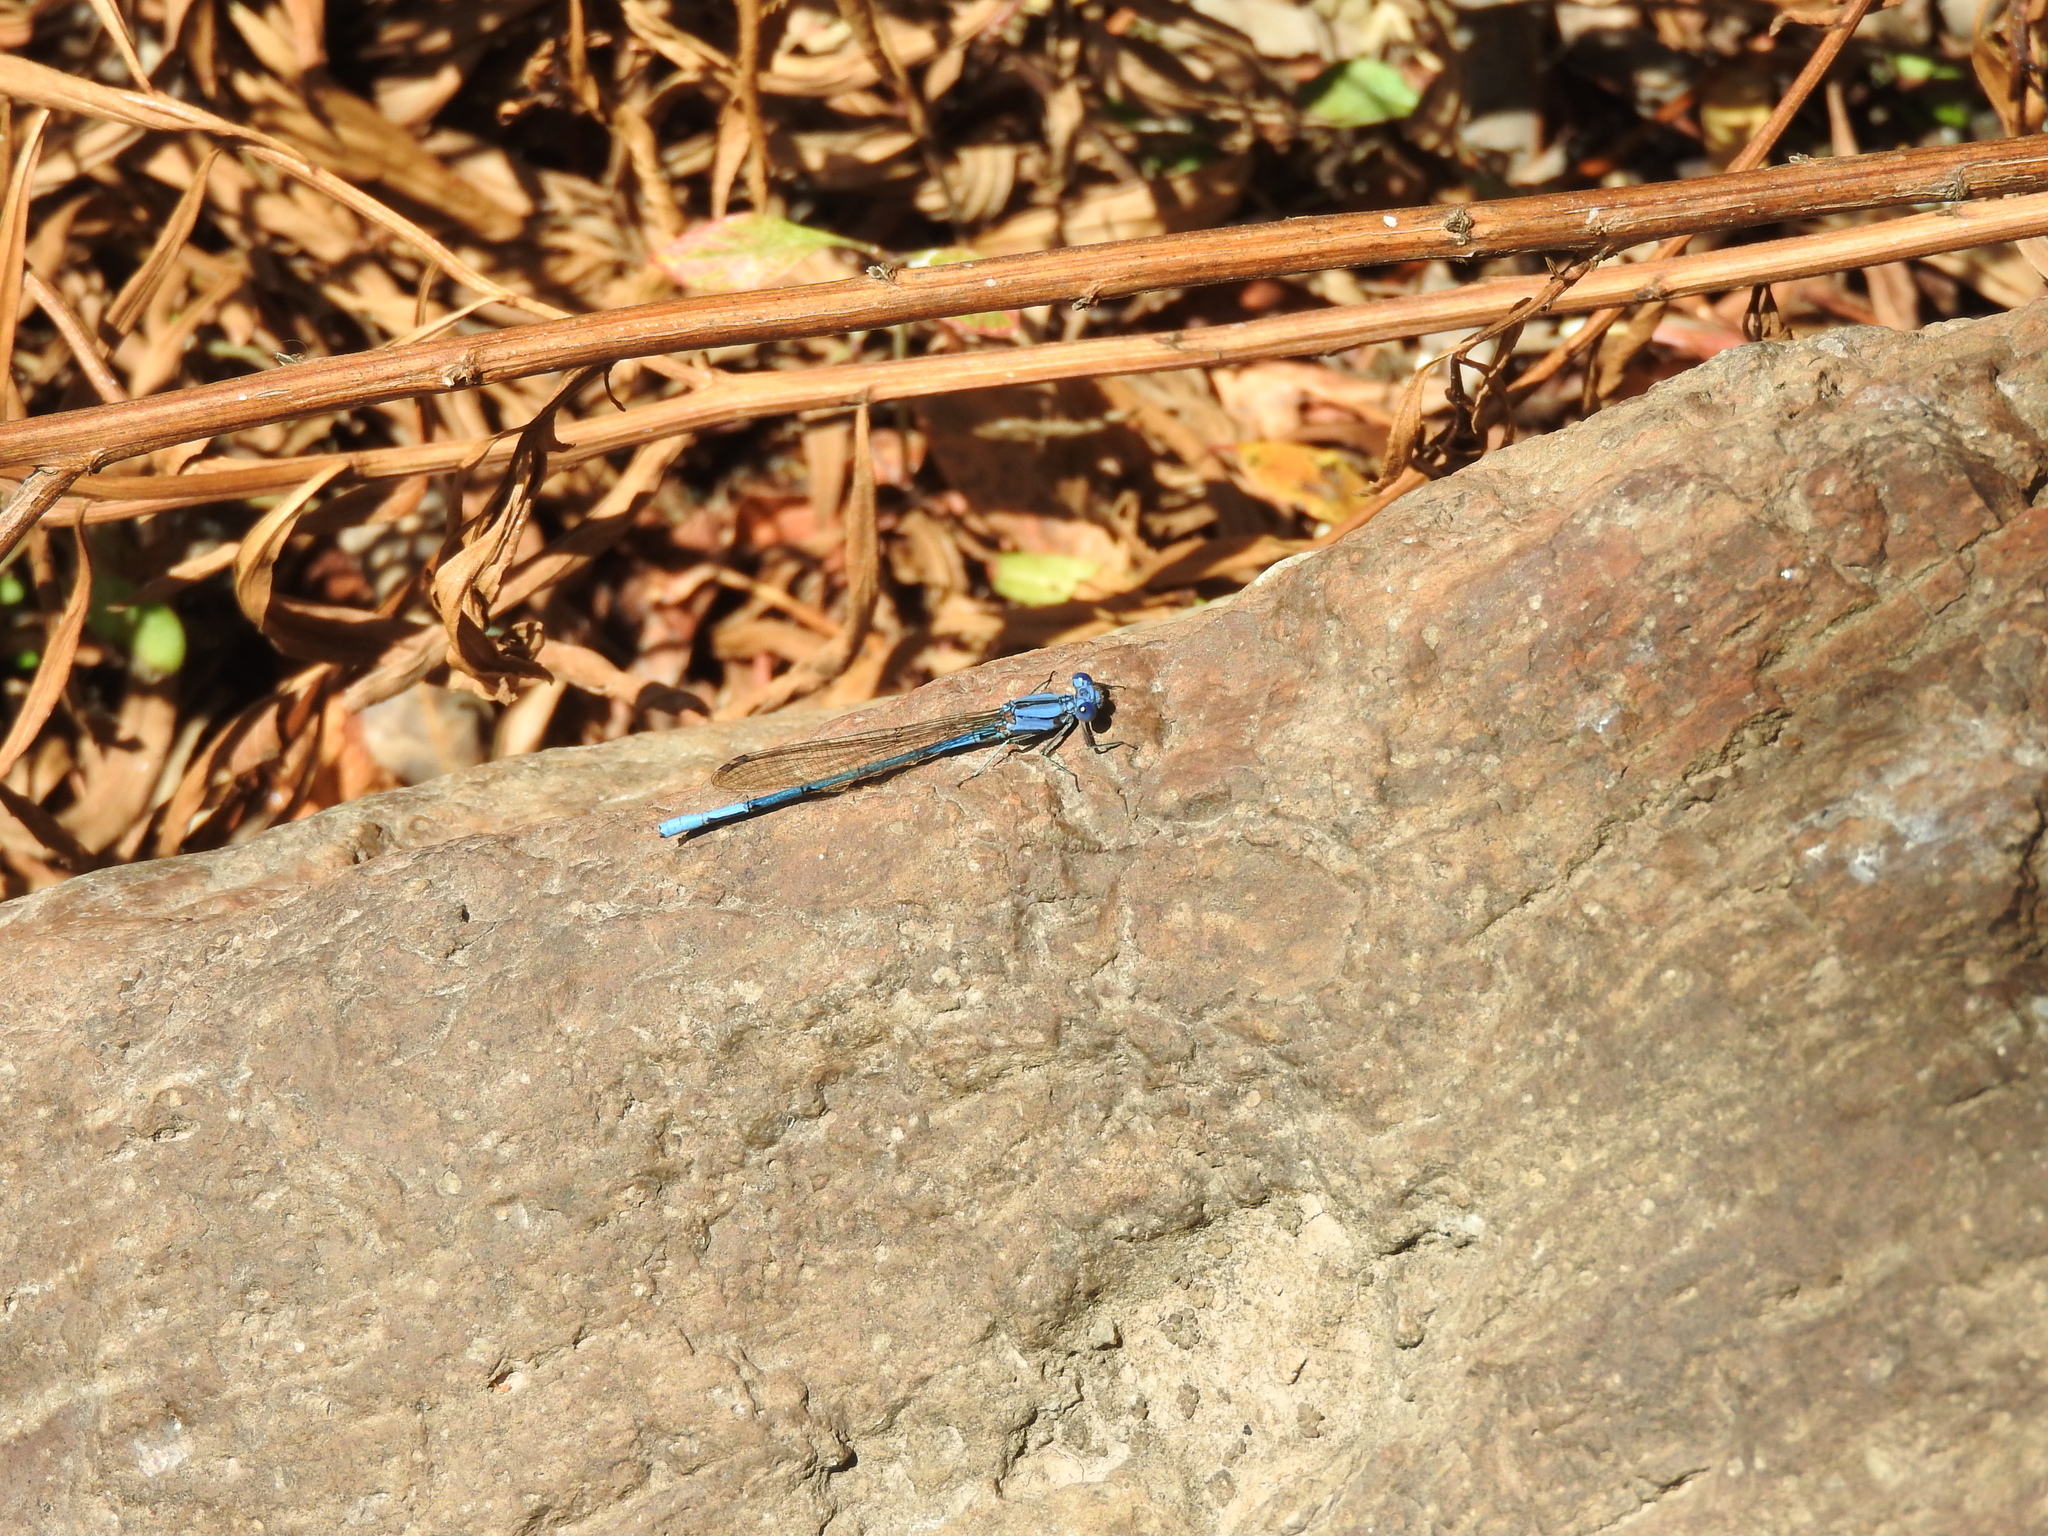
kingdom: Animalia
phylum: Arthropoda
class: Insecta
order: Odonata
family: Coenagrionidae
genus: Argia
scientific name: Argia anceps
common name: Cerulean dancer
